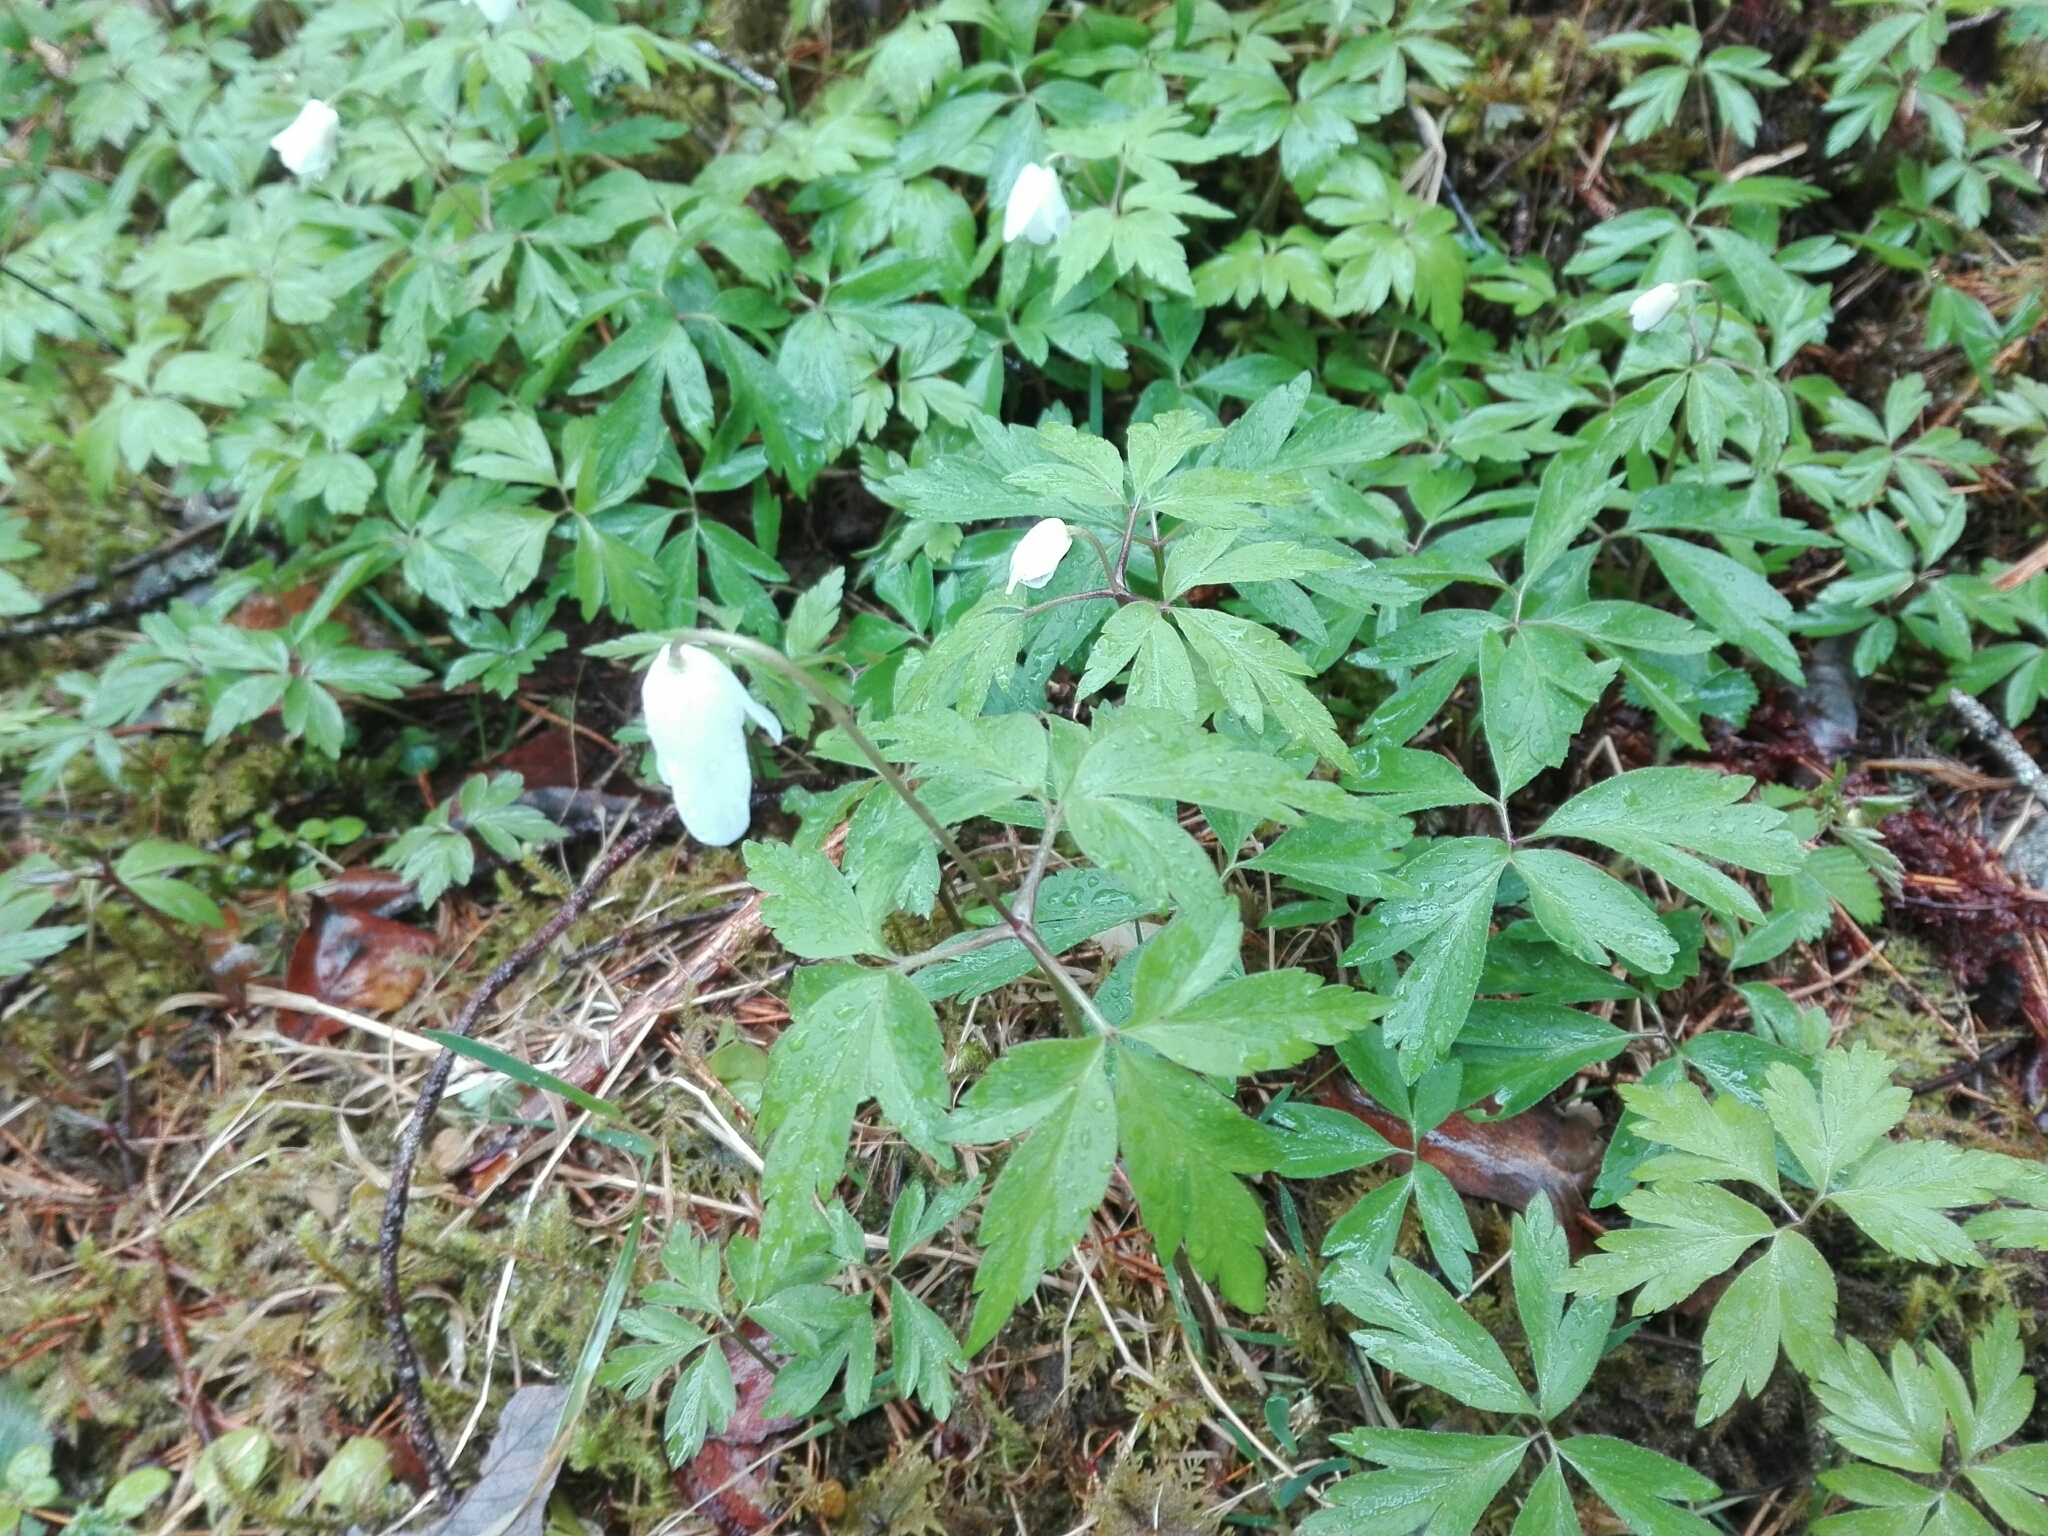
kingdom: Plantae
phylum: Tracheophyta
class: Magnoliopsida
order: Ranunculales
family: Ranunculaceae
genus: Anemone
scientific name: Anemone nemorosa
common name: Wood anemone
